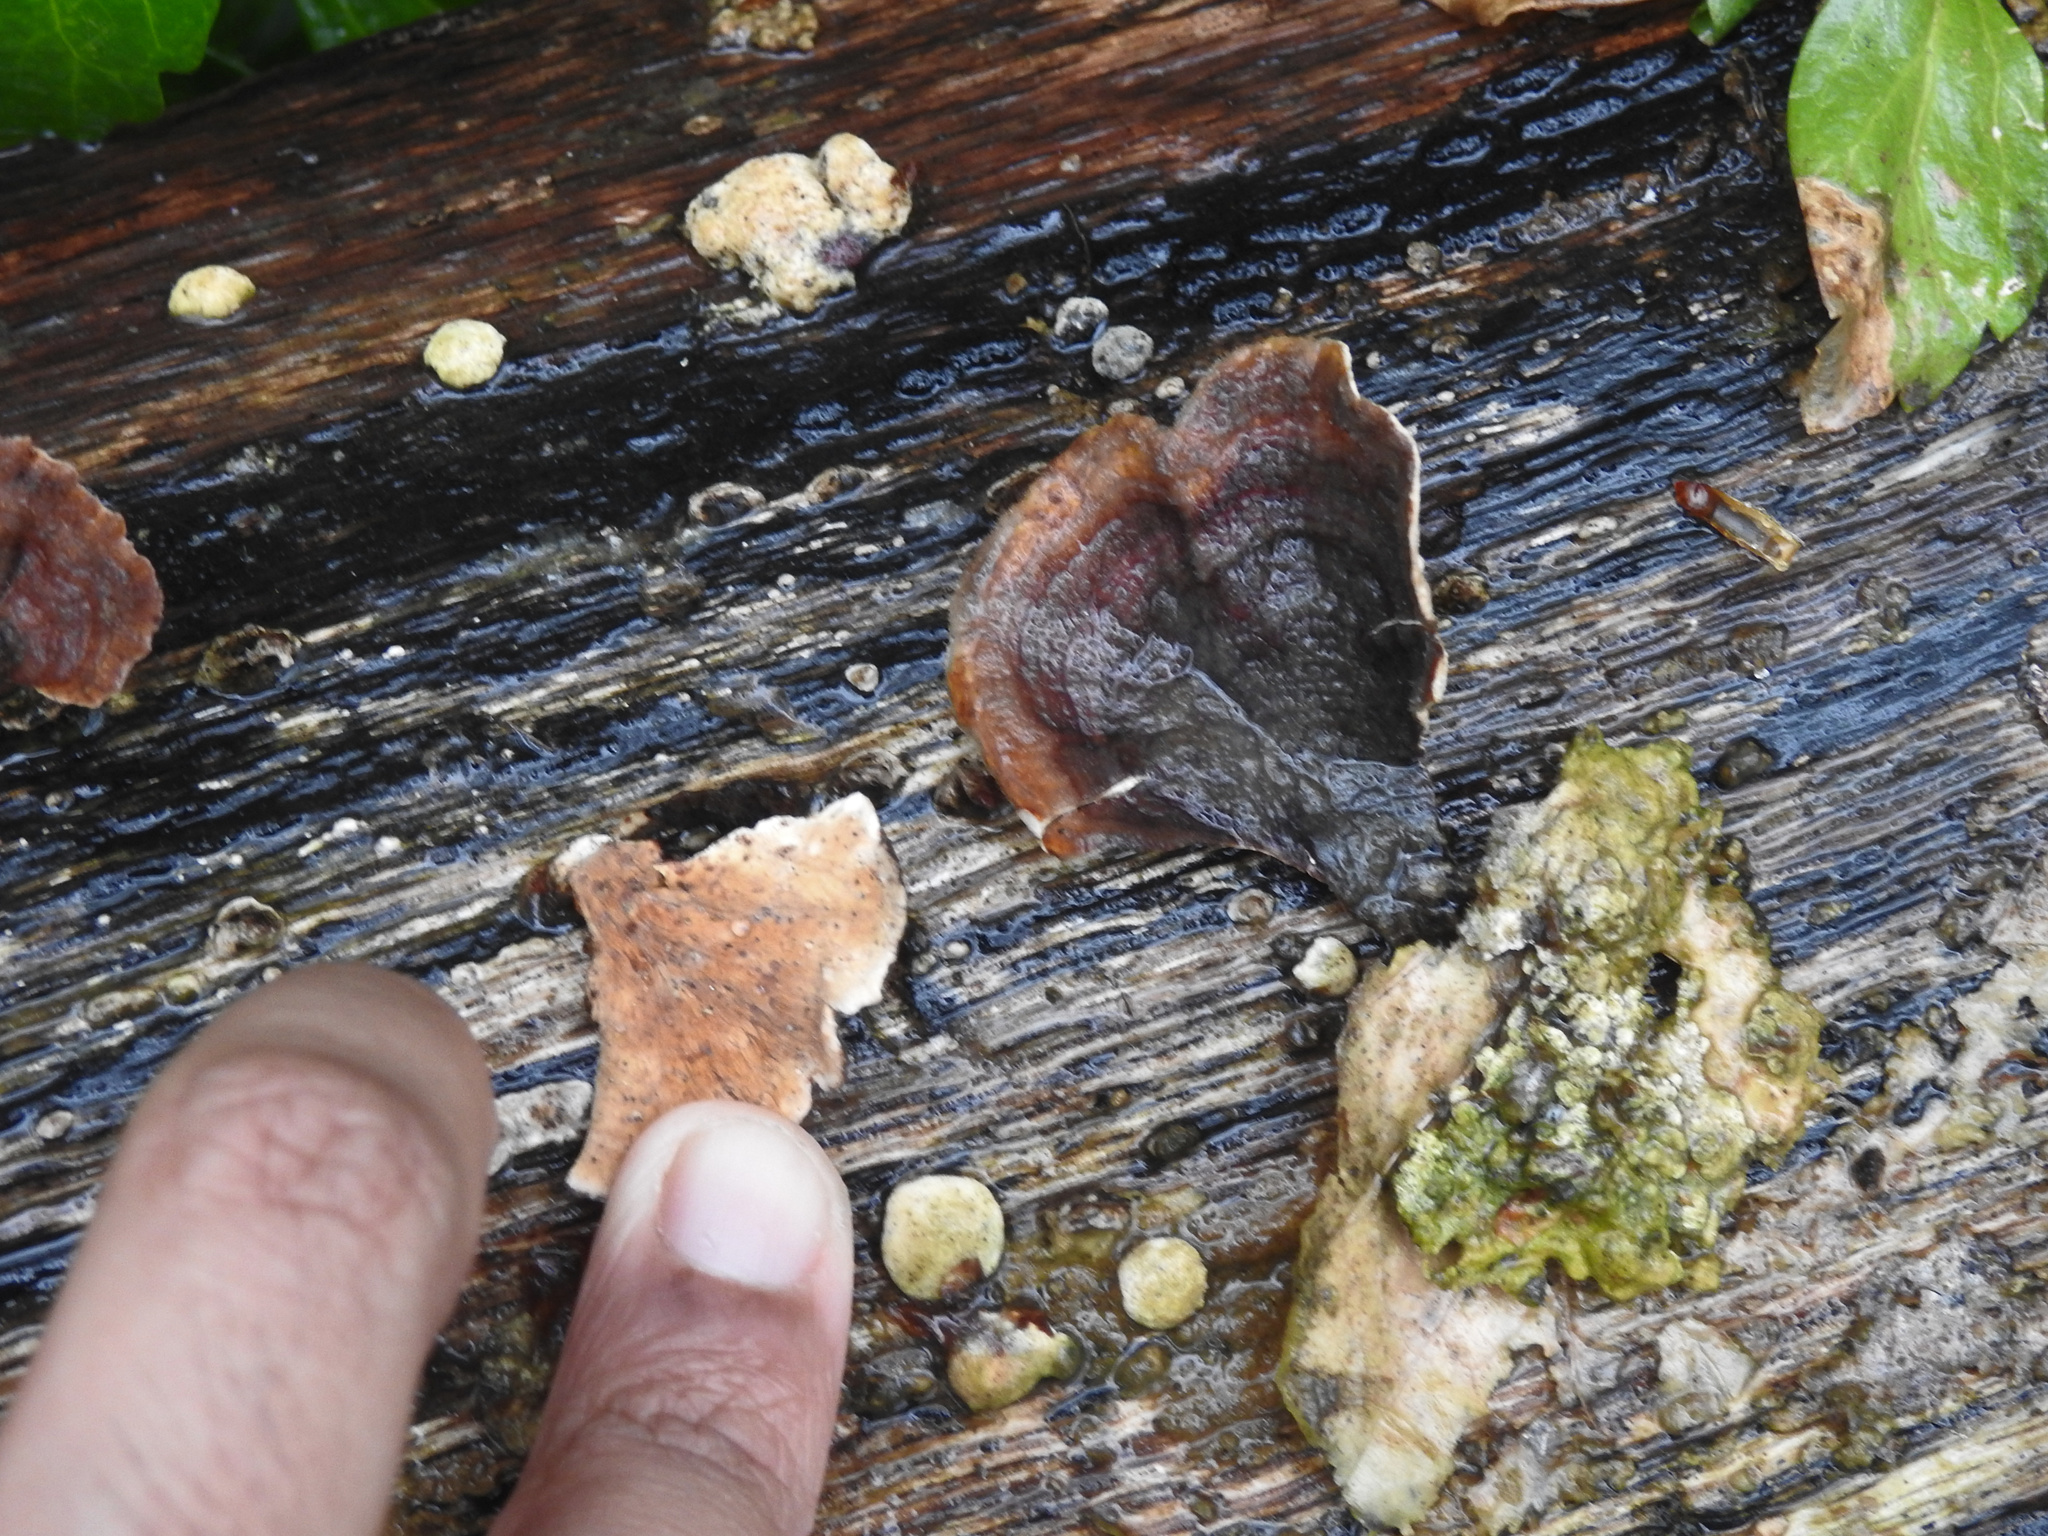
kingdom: Fungi
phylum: Basidiomycota
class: Agaricomycetes
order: Russulales
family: Stereaceae
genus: Stereum
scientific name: Stereum ostrea
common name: False turkeytail
